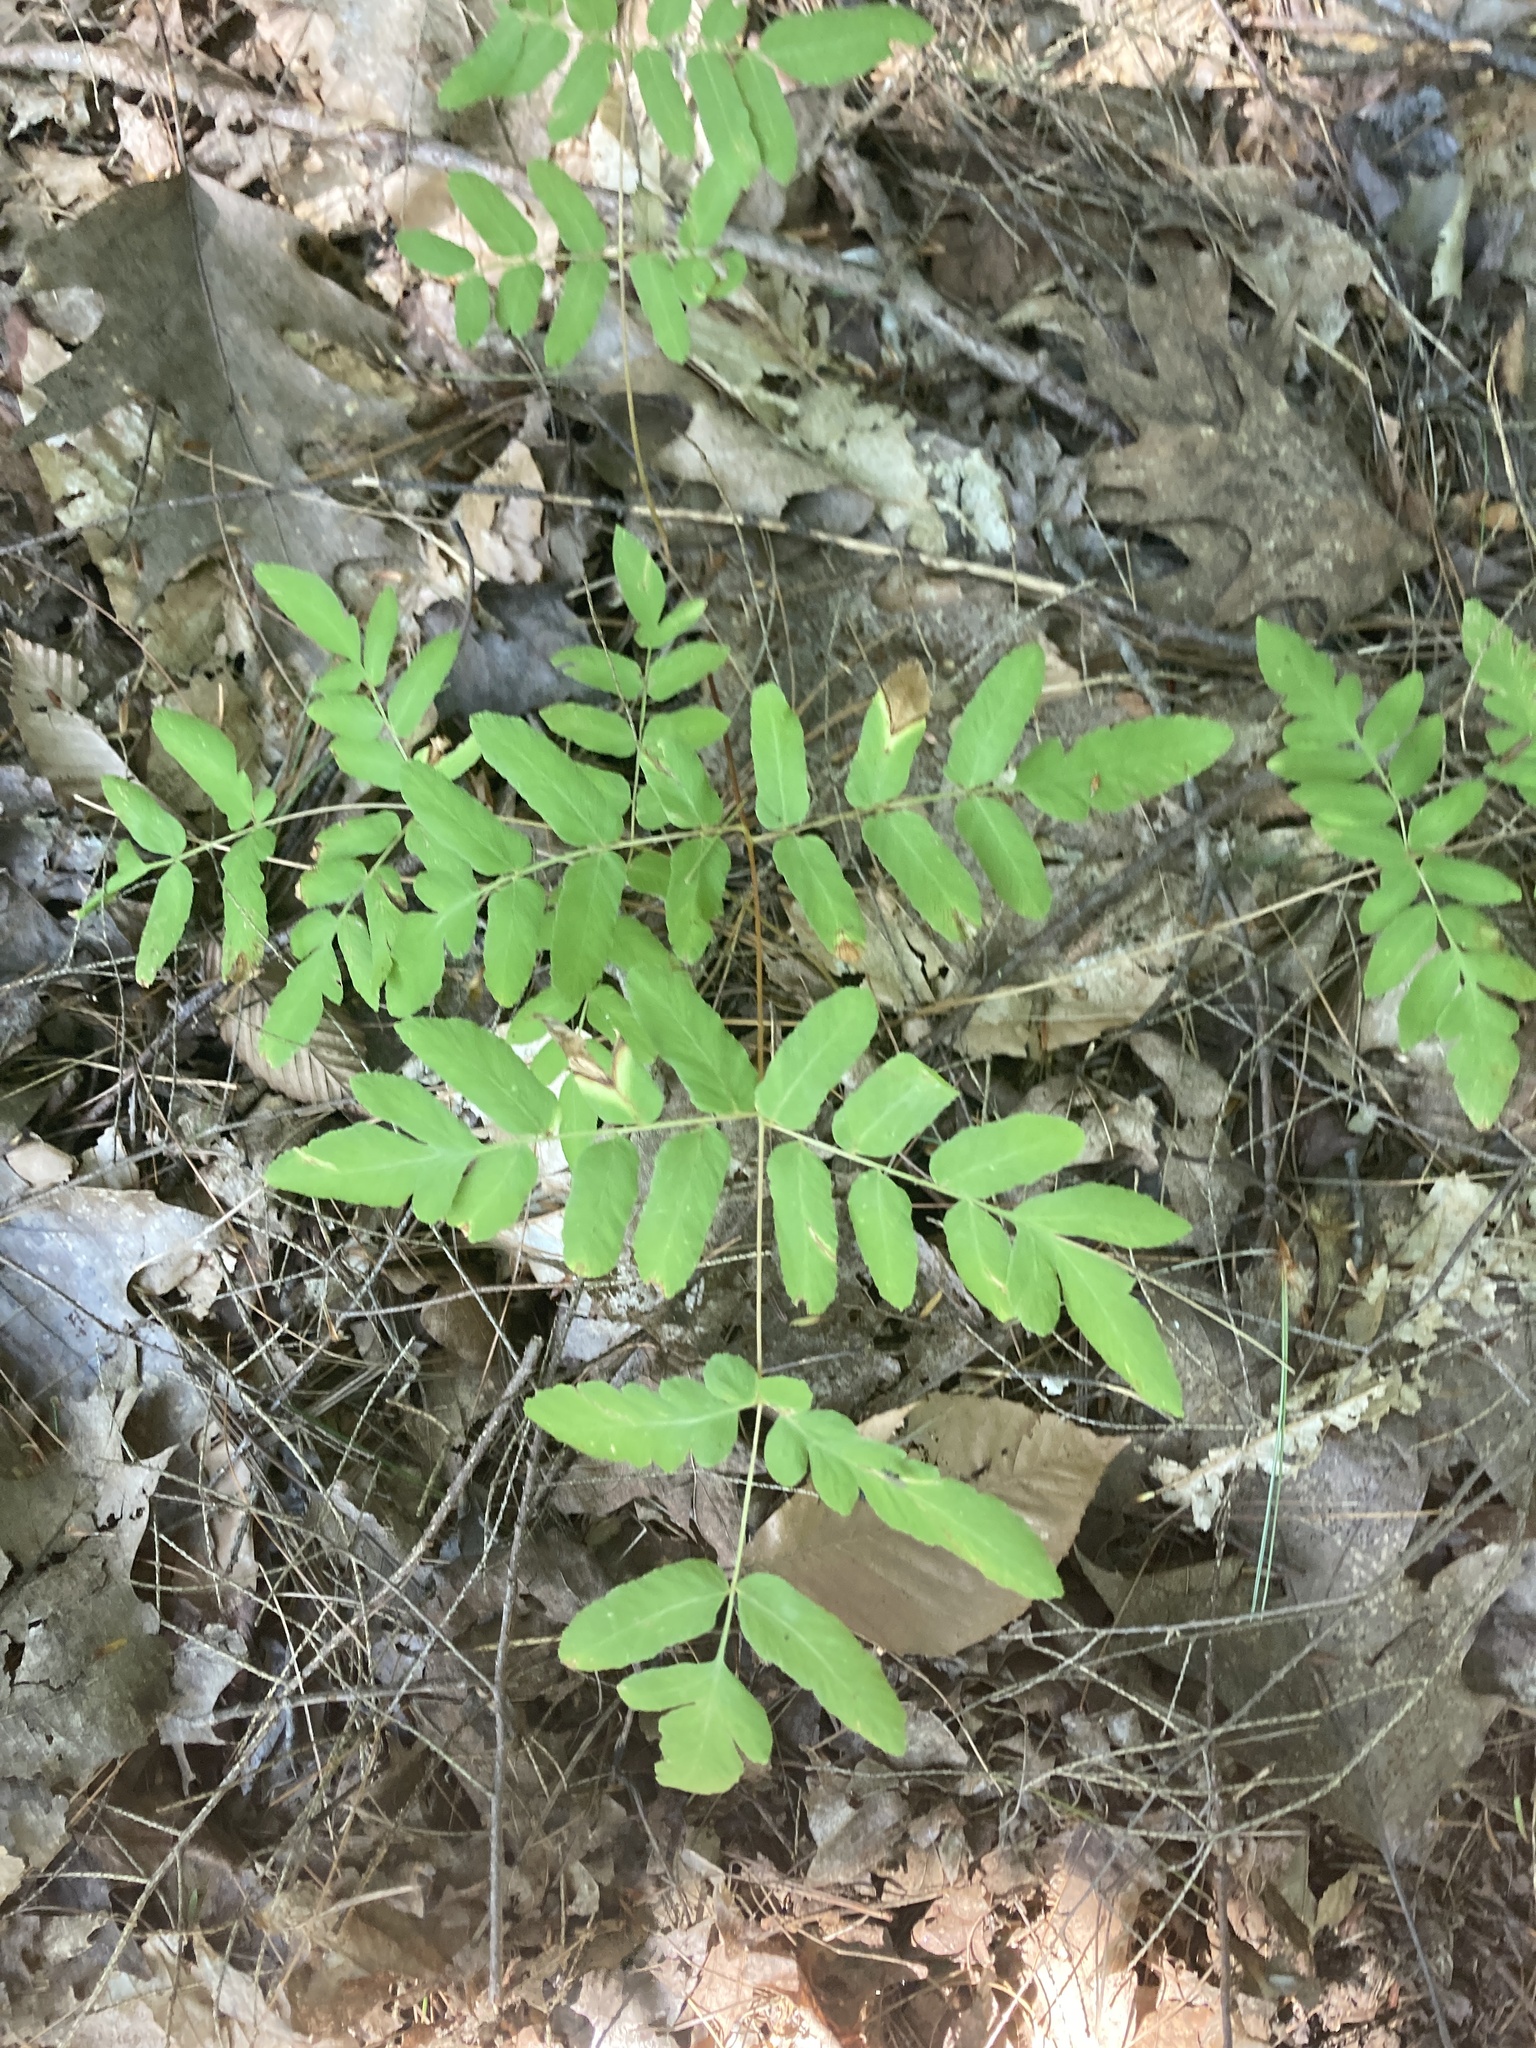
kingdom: Plantae
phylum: Tracheophyta
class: Polypodiopsida
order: Osmundales
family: Osmundaceae
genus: Osmunda
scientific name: Osmunda spectabilis
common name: American royal fern
